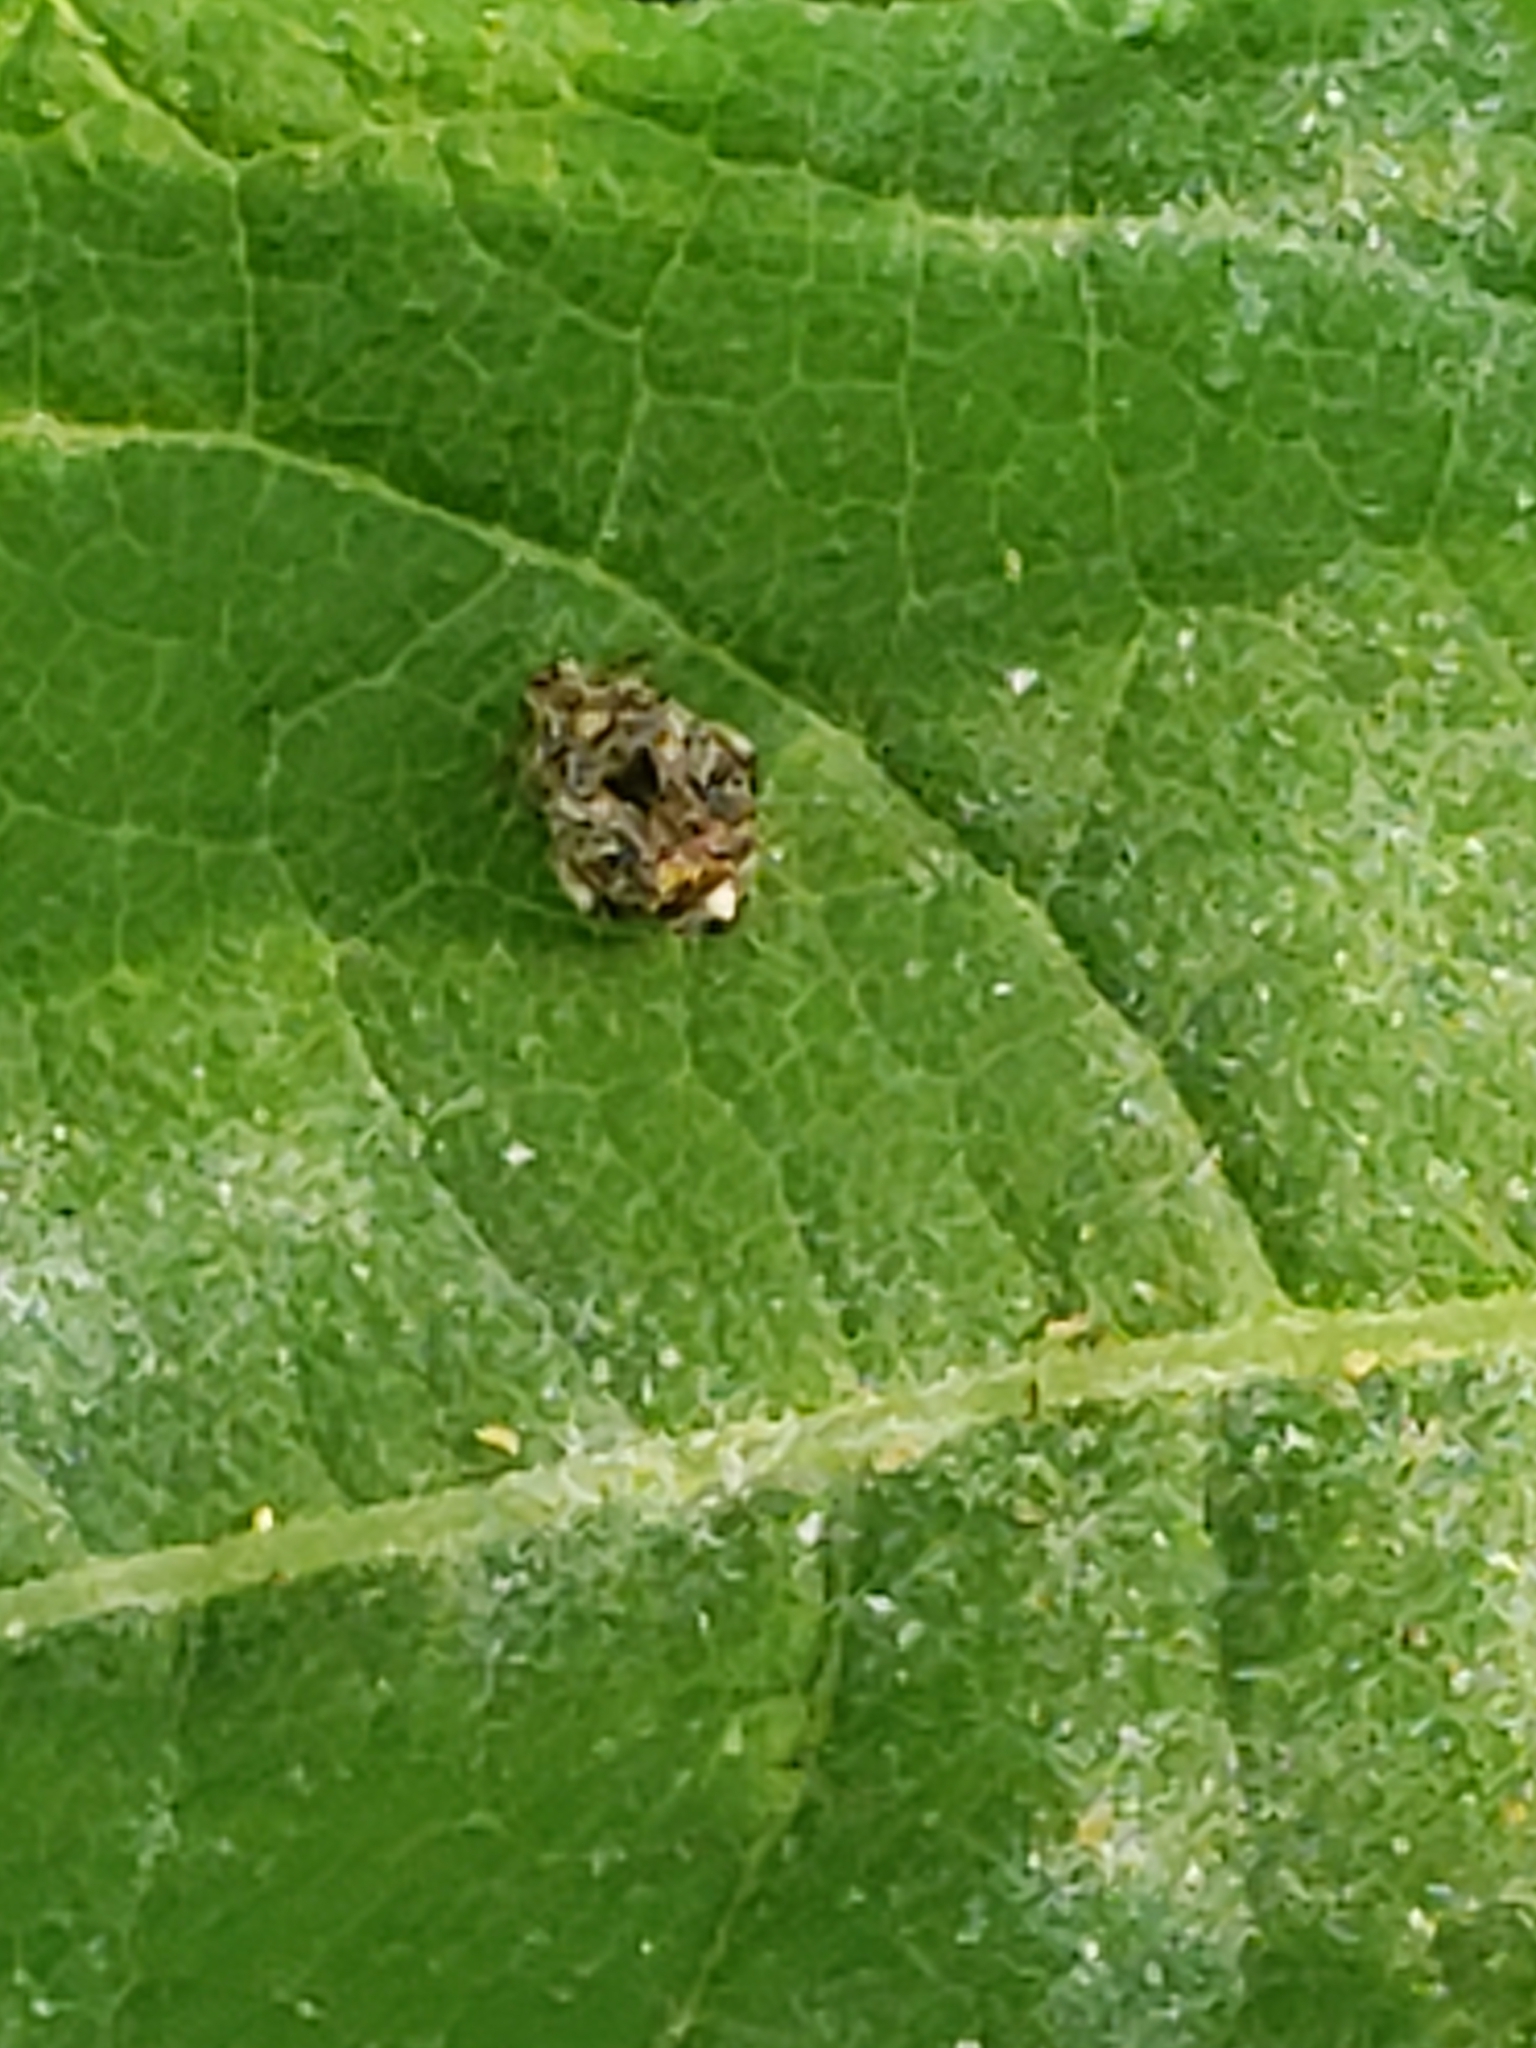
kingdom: Animalia
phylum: Arthropoda
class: Insecta
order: Coleoptera
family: Chrysomelidae
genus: Gibbobruchus
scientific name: Gibbobruchus mimus
